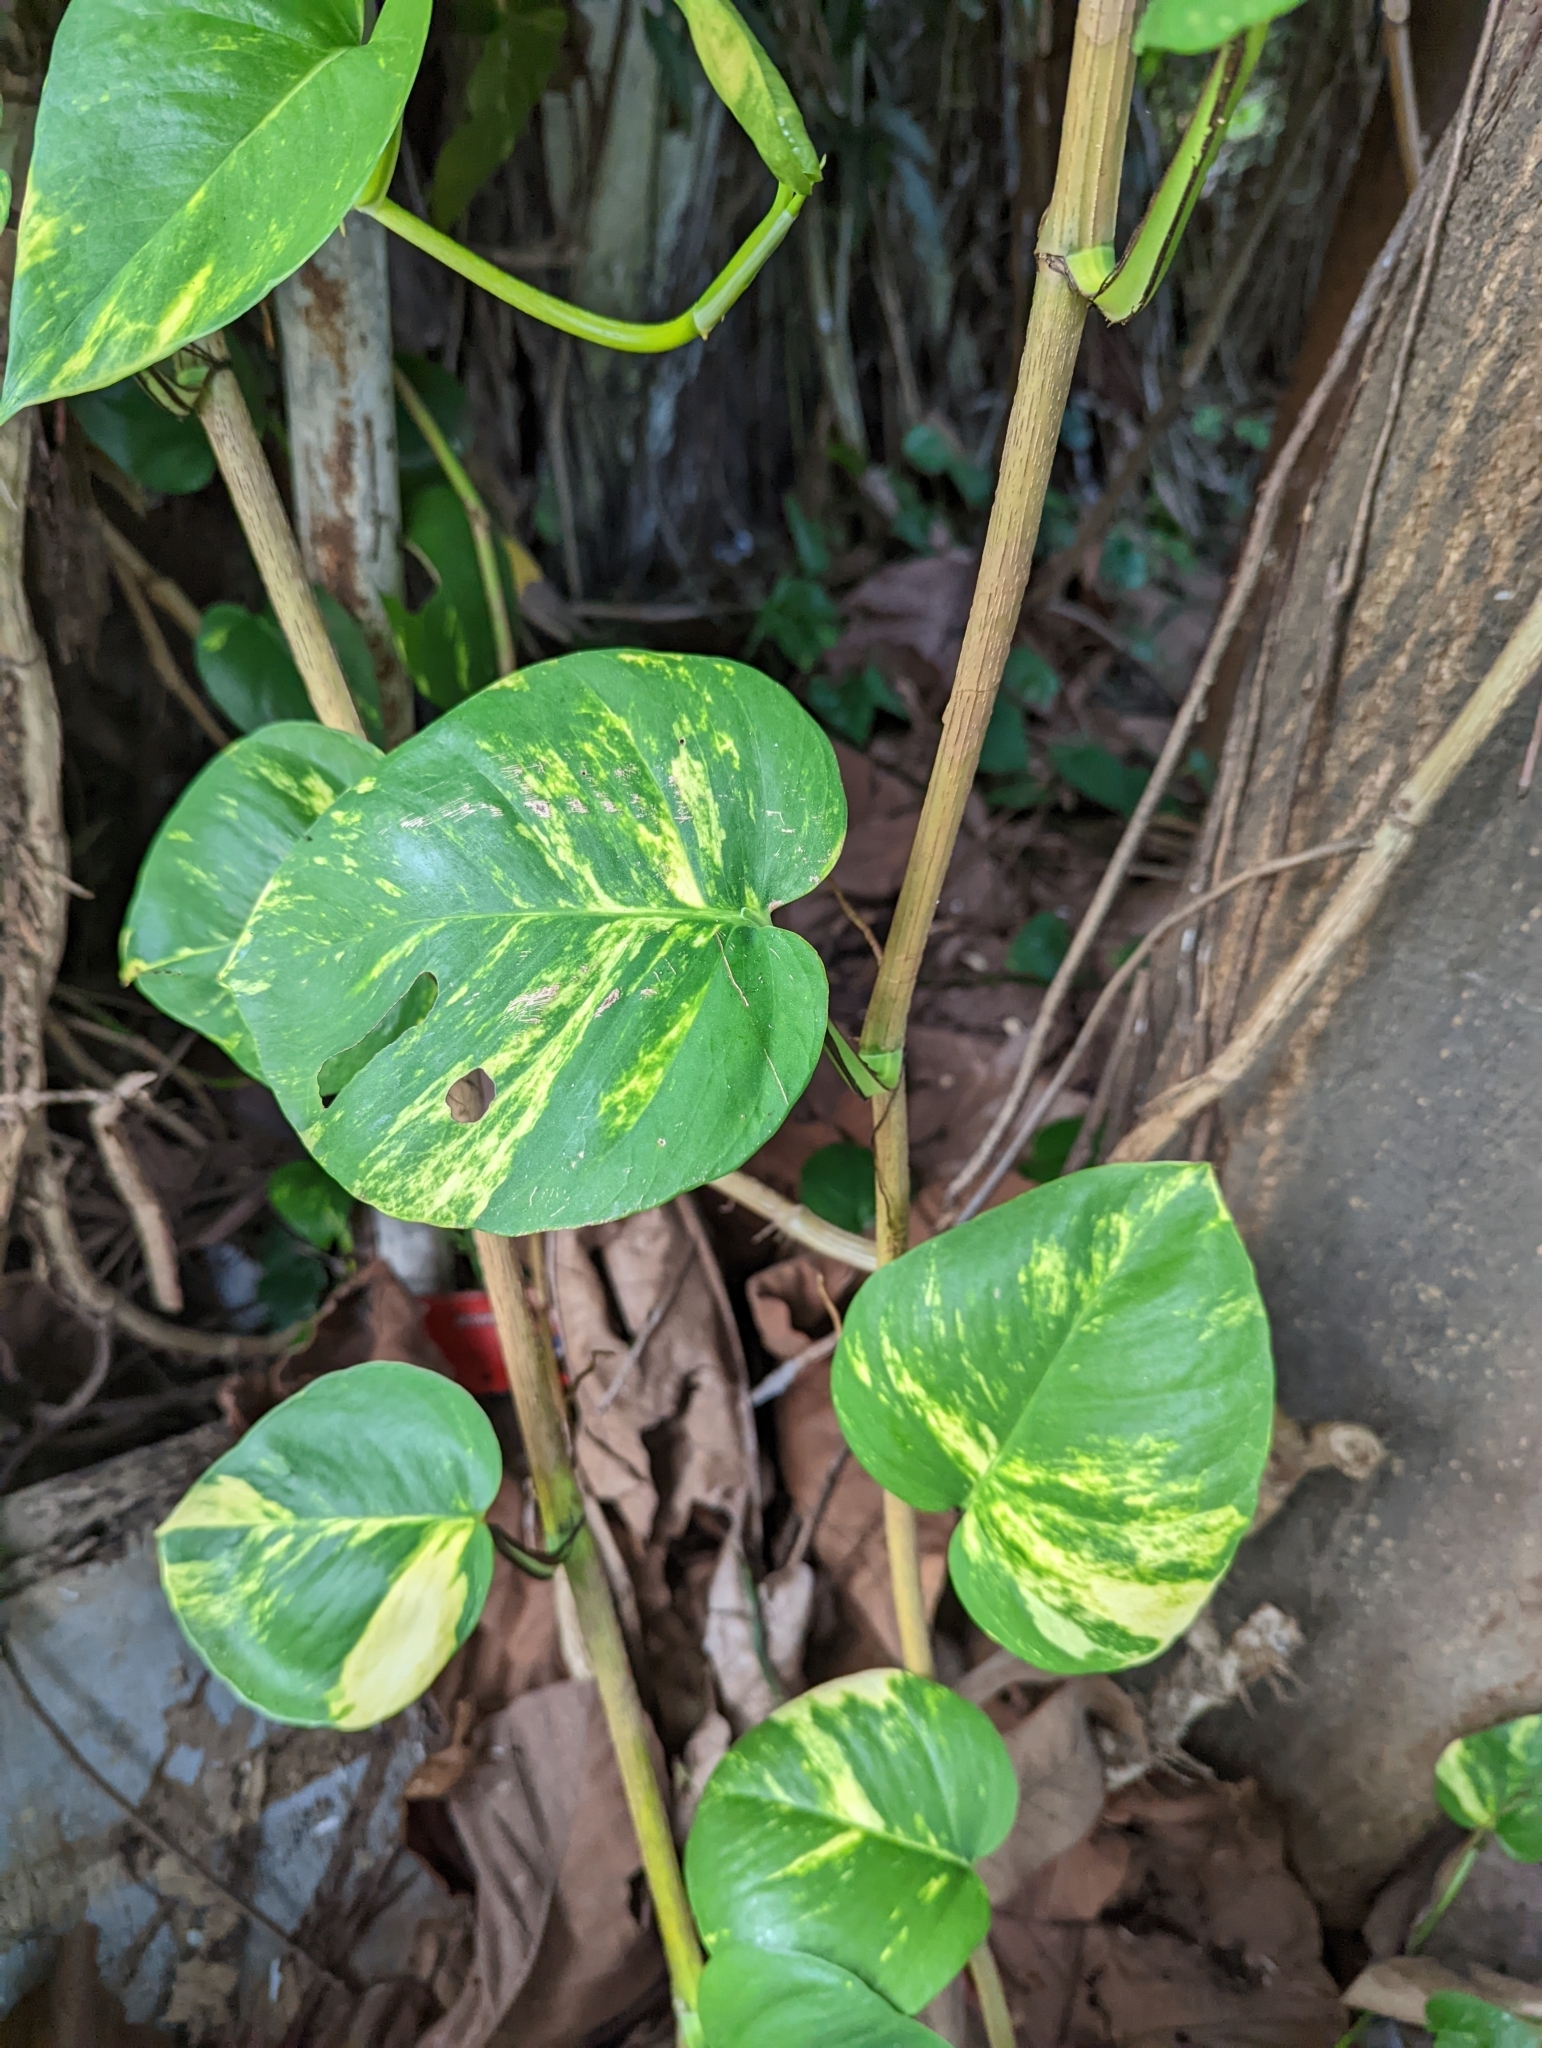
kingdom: Plantae
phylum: Tracheophyta
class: Liliopsida
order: Alismatales
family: Araceae
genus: Epipremnum
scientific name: Epipremnum aureum
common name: Golden hunter's-robe
